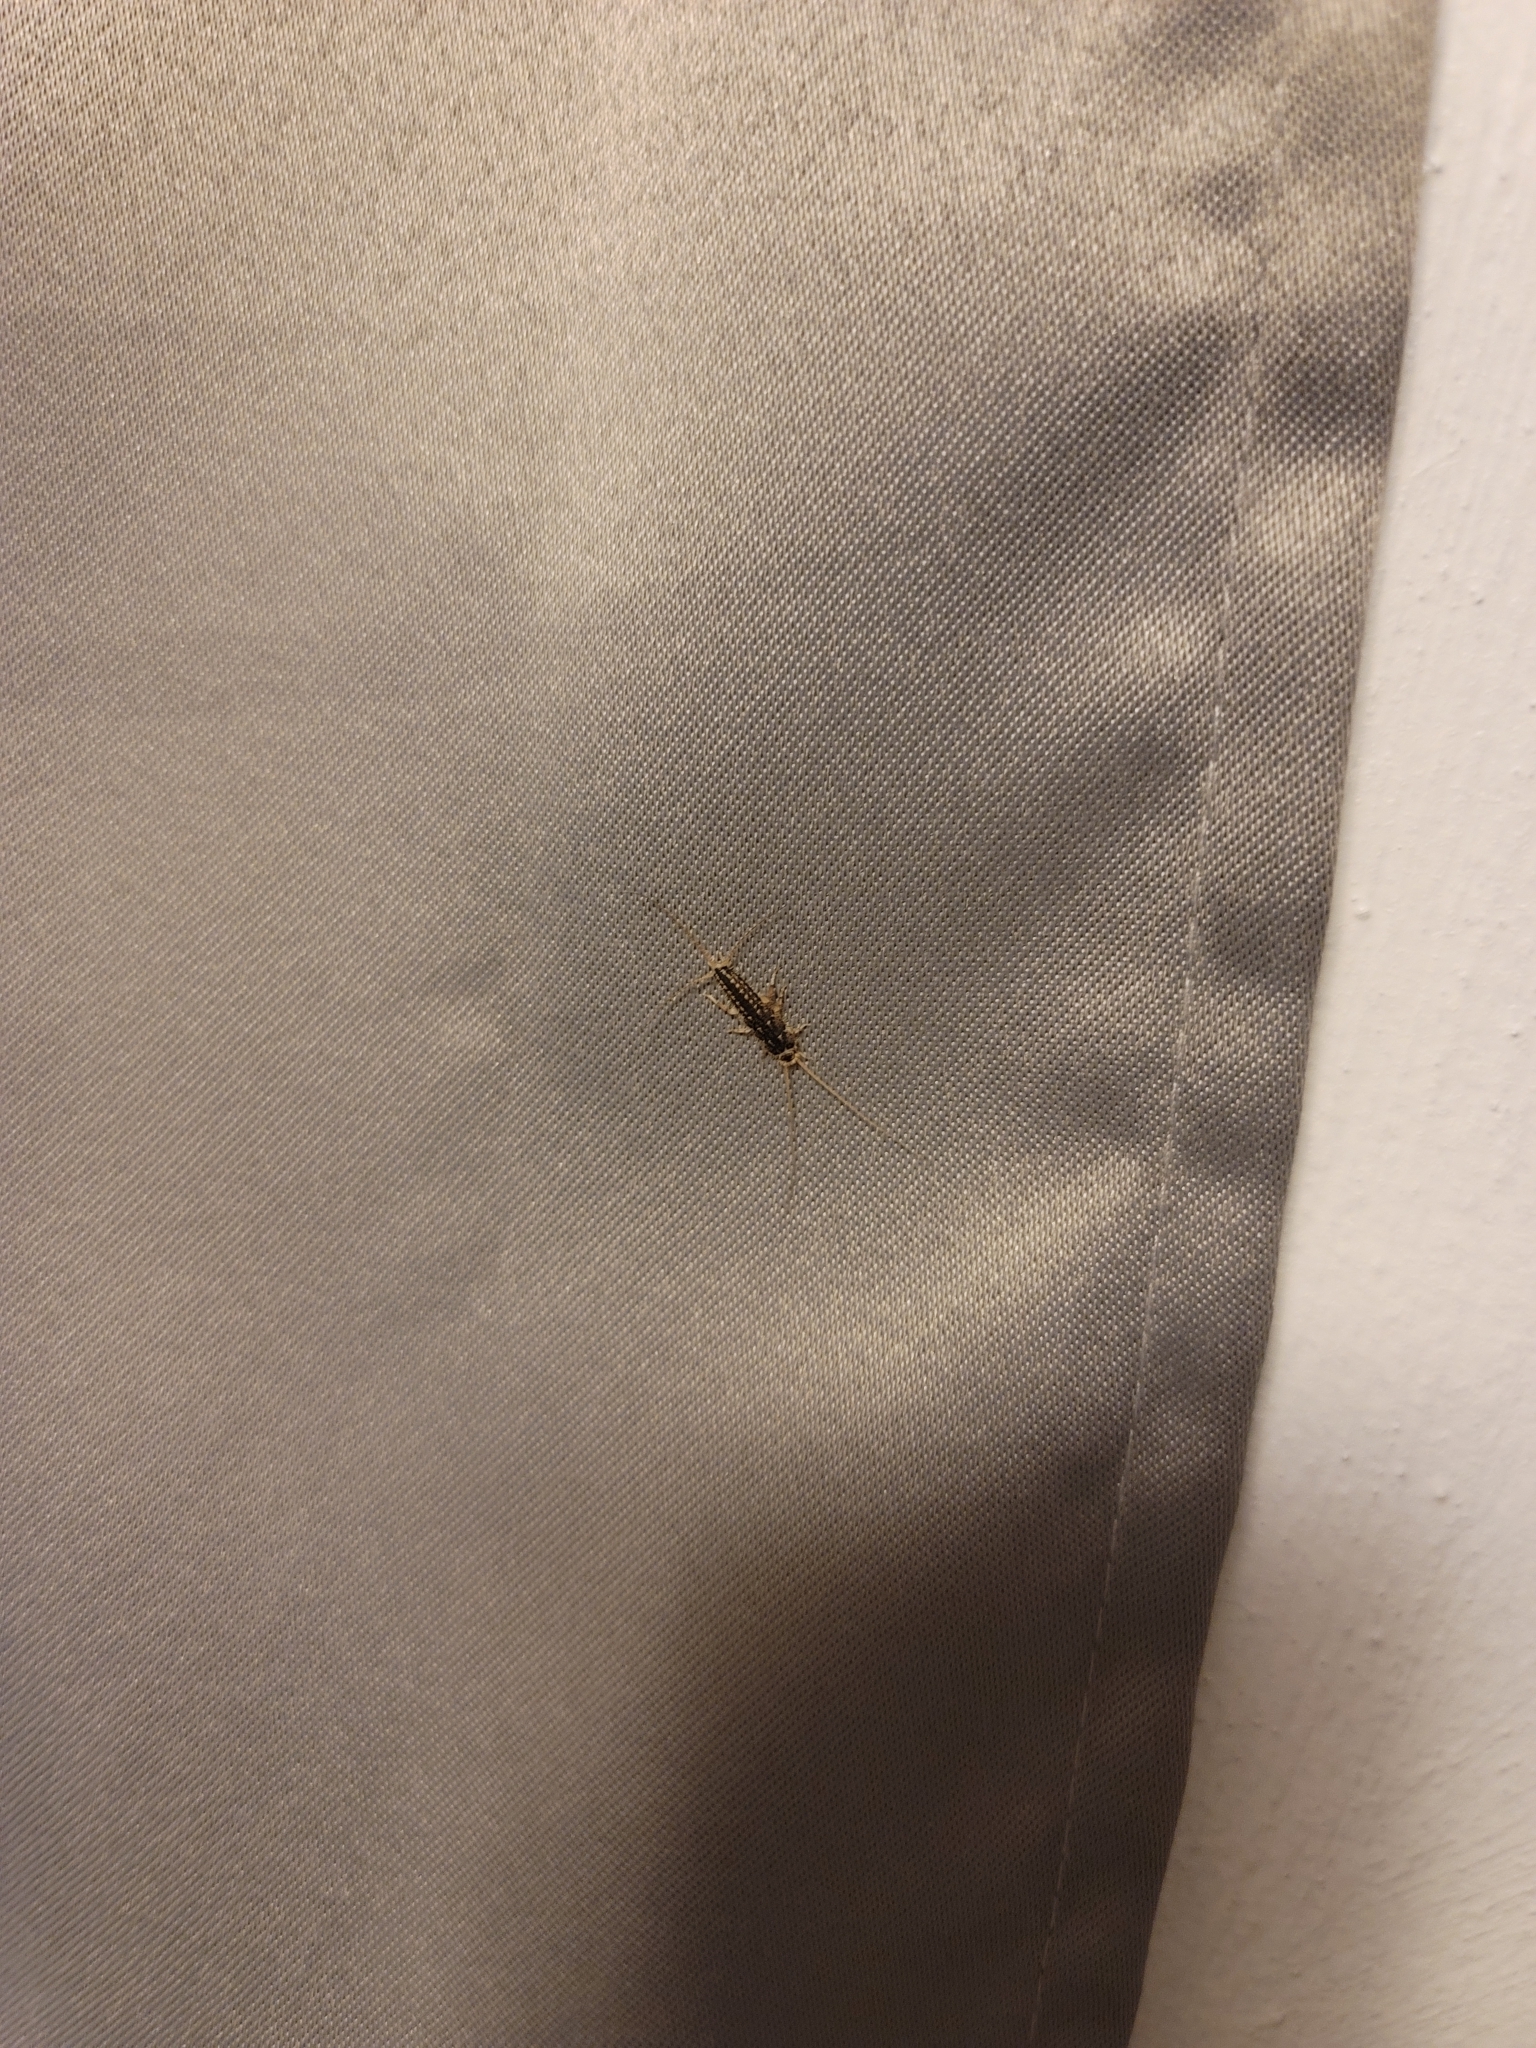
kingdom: Animalia
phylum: Arthropoda
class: Insecta
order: Zygentoma
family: Lepismatidae
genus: Ctenolepisma
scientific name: Ctenolepisma lineata
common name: Four-lined silverfish
